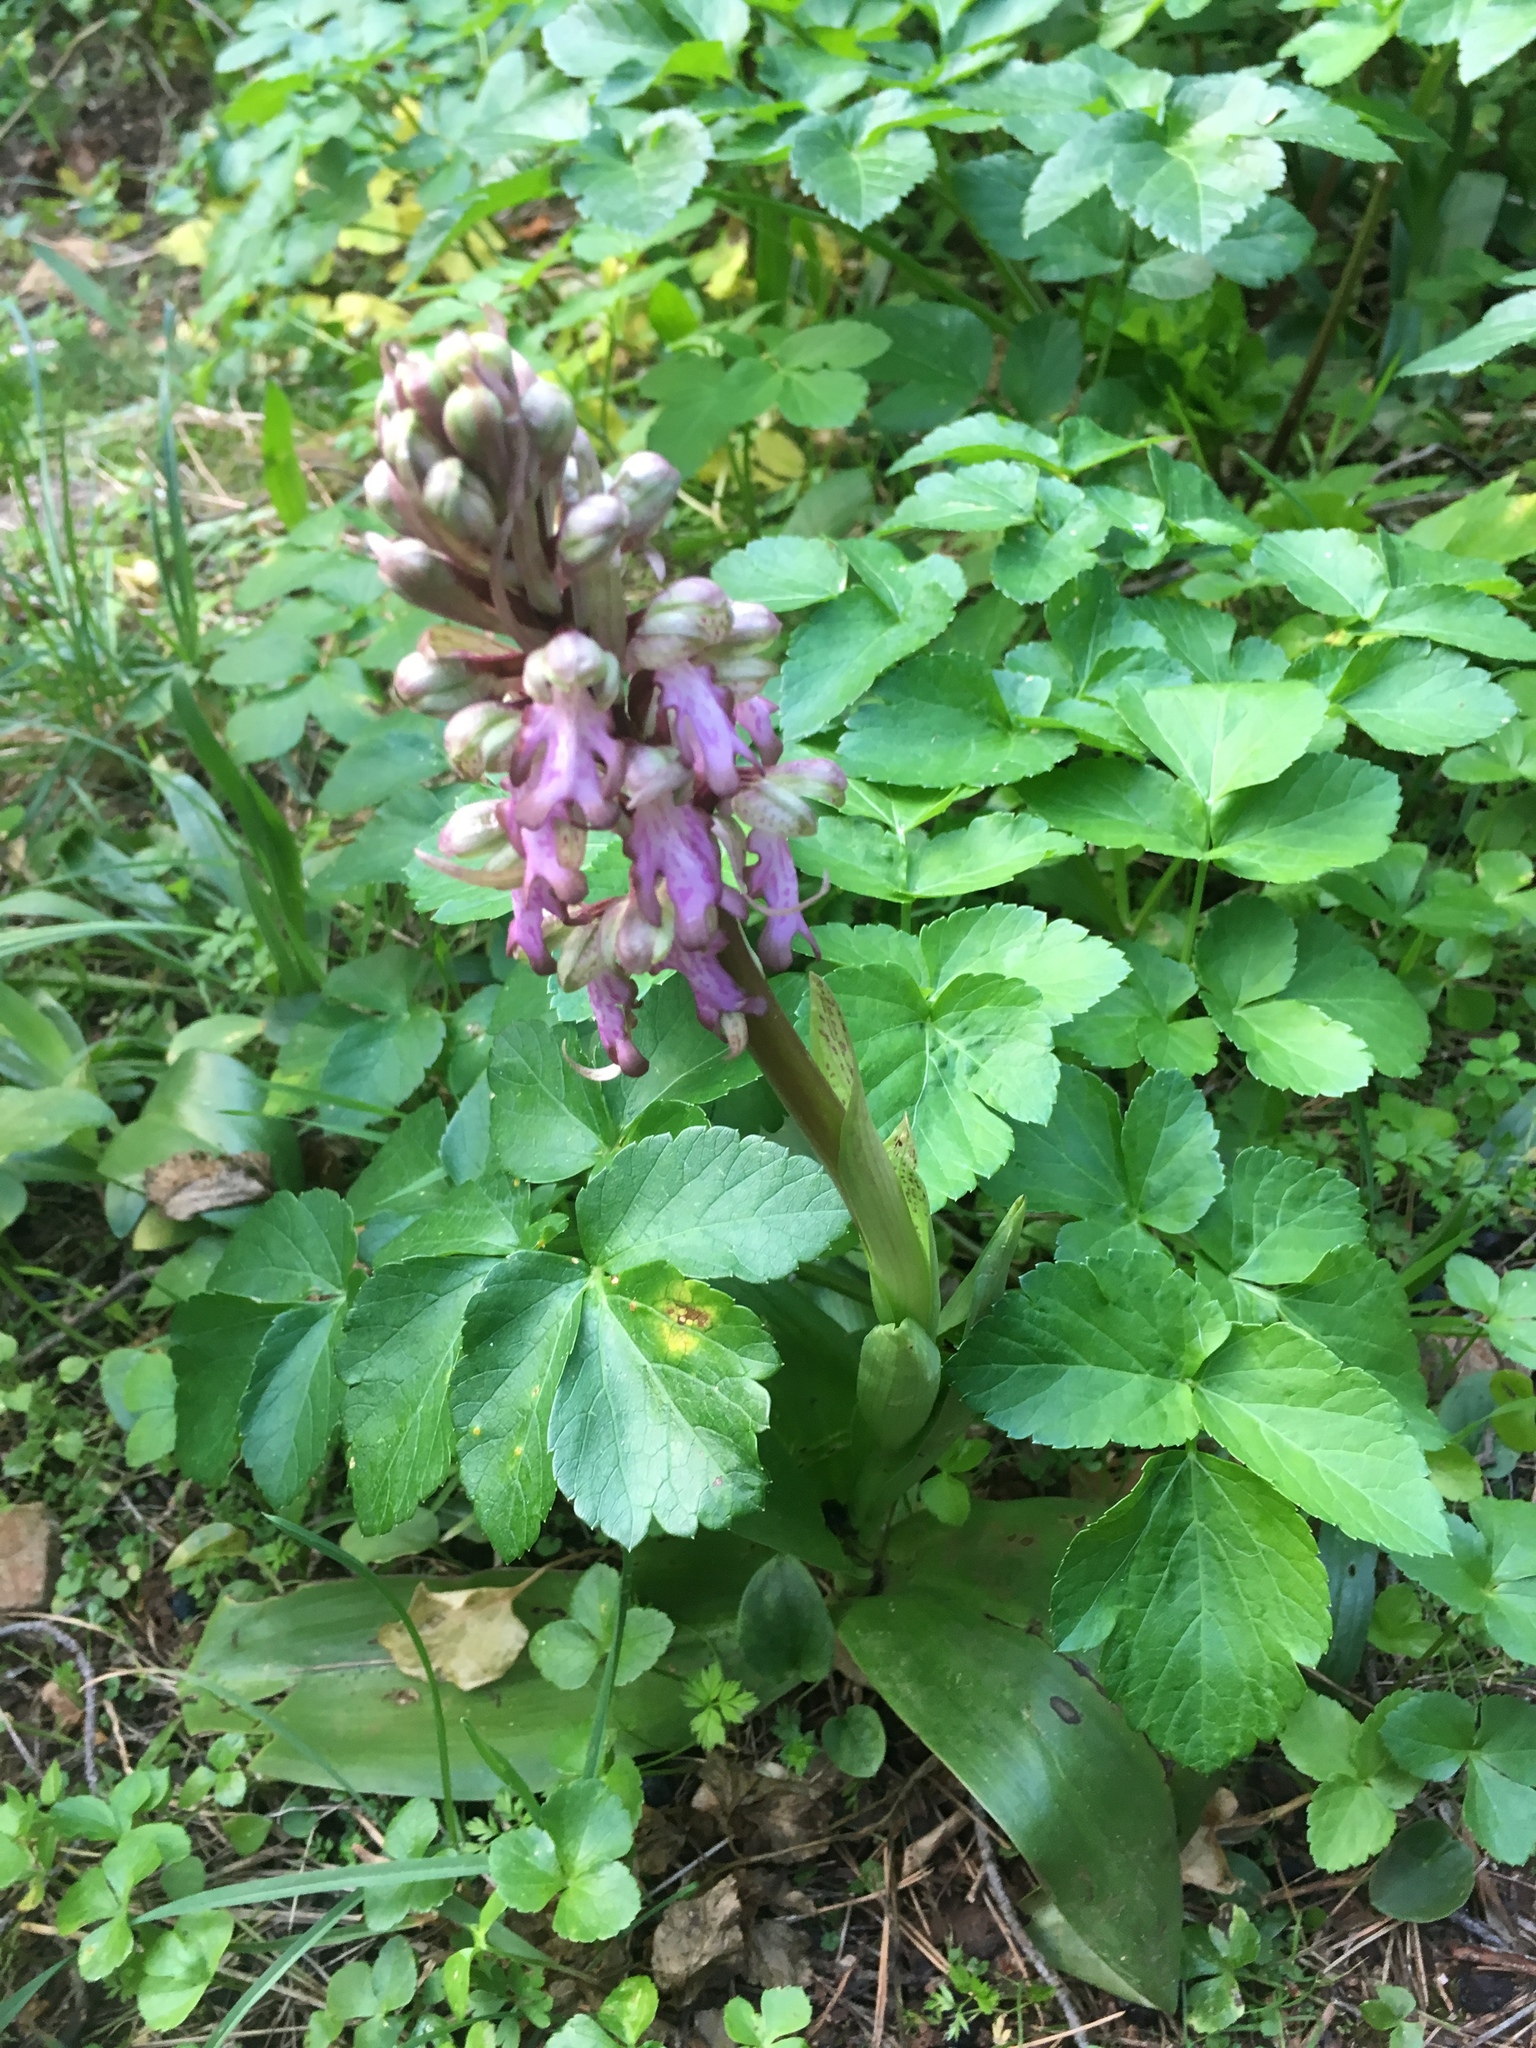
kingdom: Plantae
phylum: Tracheophyta
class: Liliopsida
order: Asparagales
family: Orchidaceae
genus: Himantoglossum
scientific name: Himantoglossum robertianum
